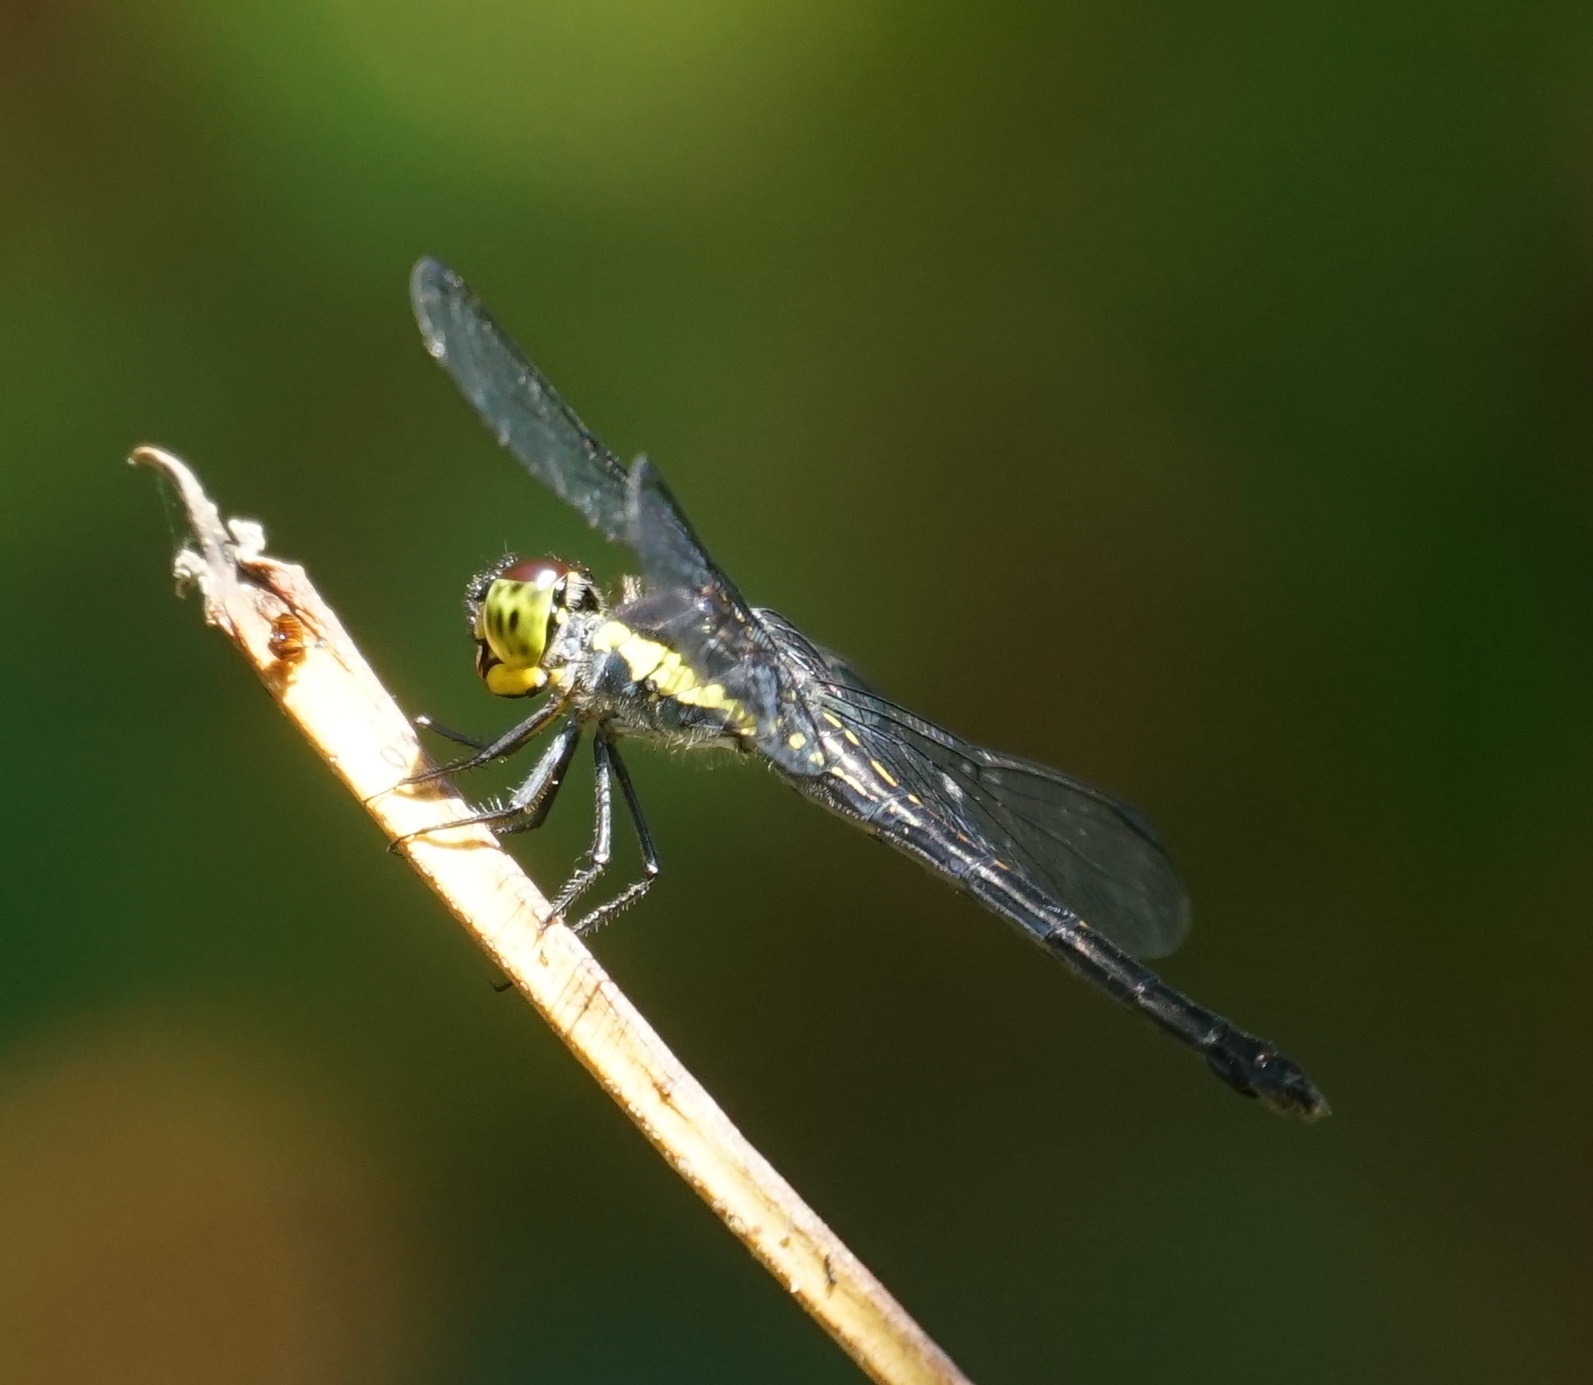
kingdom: Animalia
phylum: Arthropoda
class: Insecta
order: Odonata
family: Libellulidae
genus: Agrionoptera
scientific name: Agrionoptera longitudinalis
